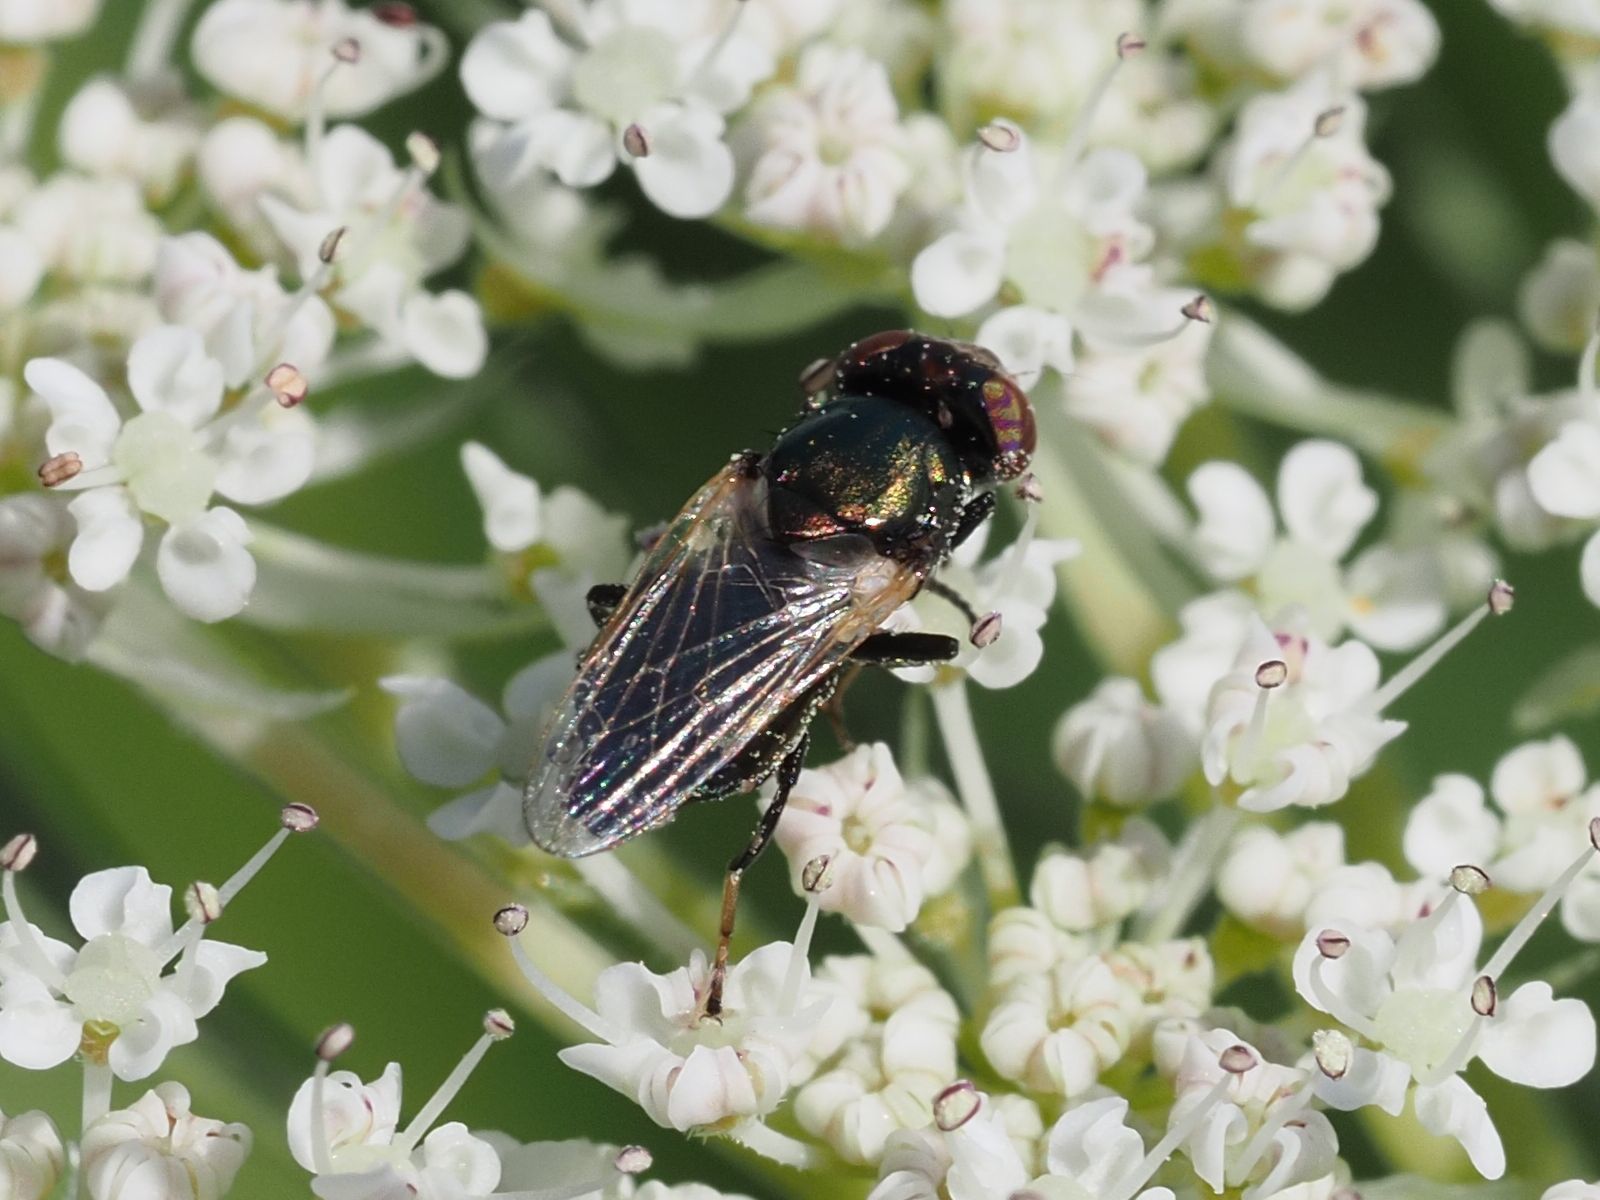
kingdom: Animalia
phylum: Arthropoda
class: Insecta
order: Diptera
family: Ulidiidae
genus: Physiphora
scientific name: Physiphora alceae
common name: Picture-winged fly
